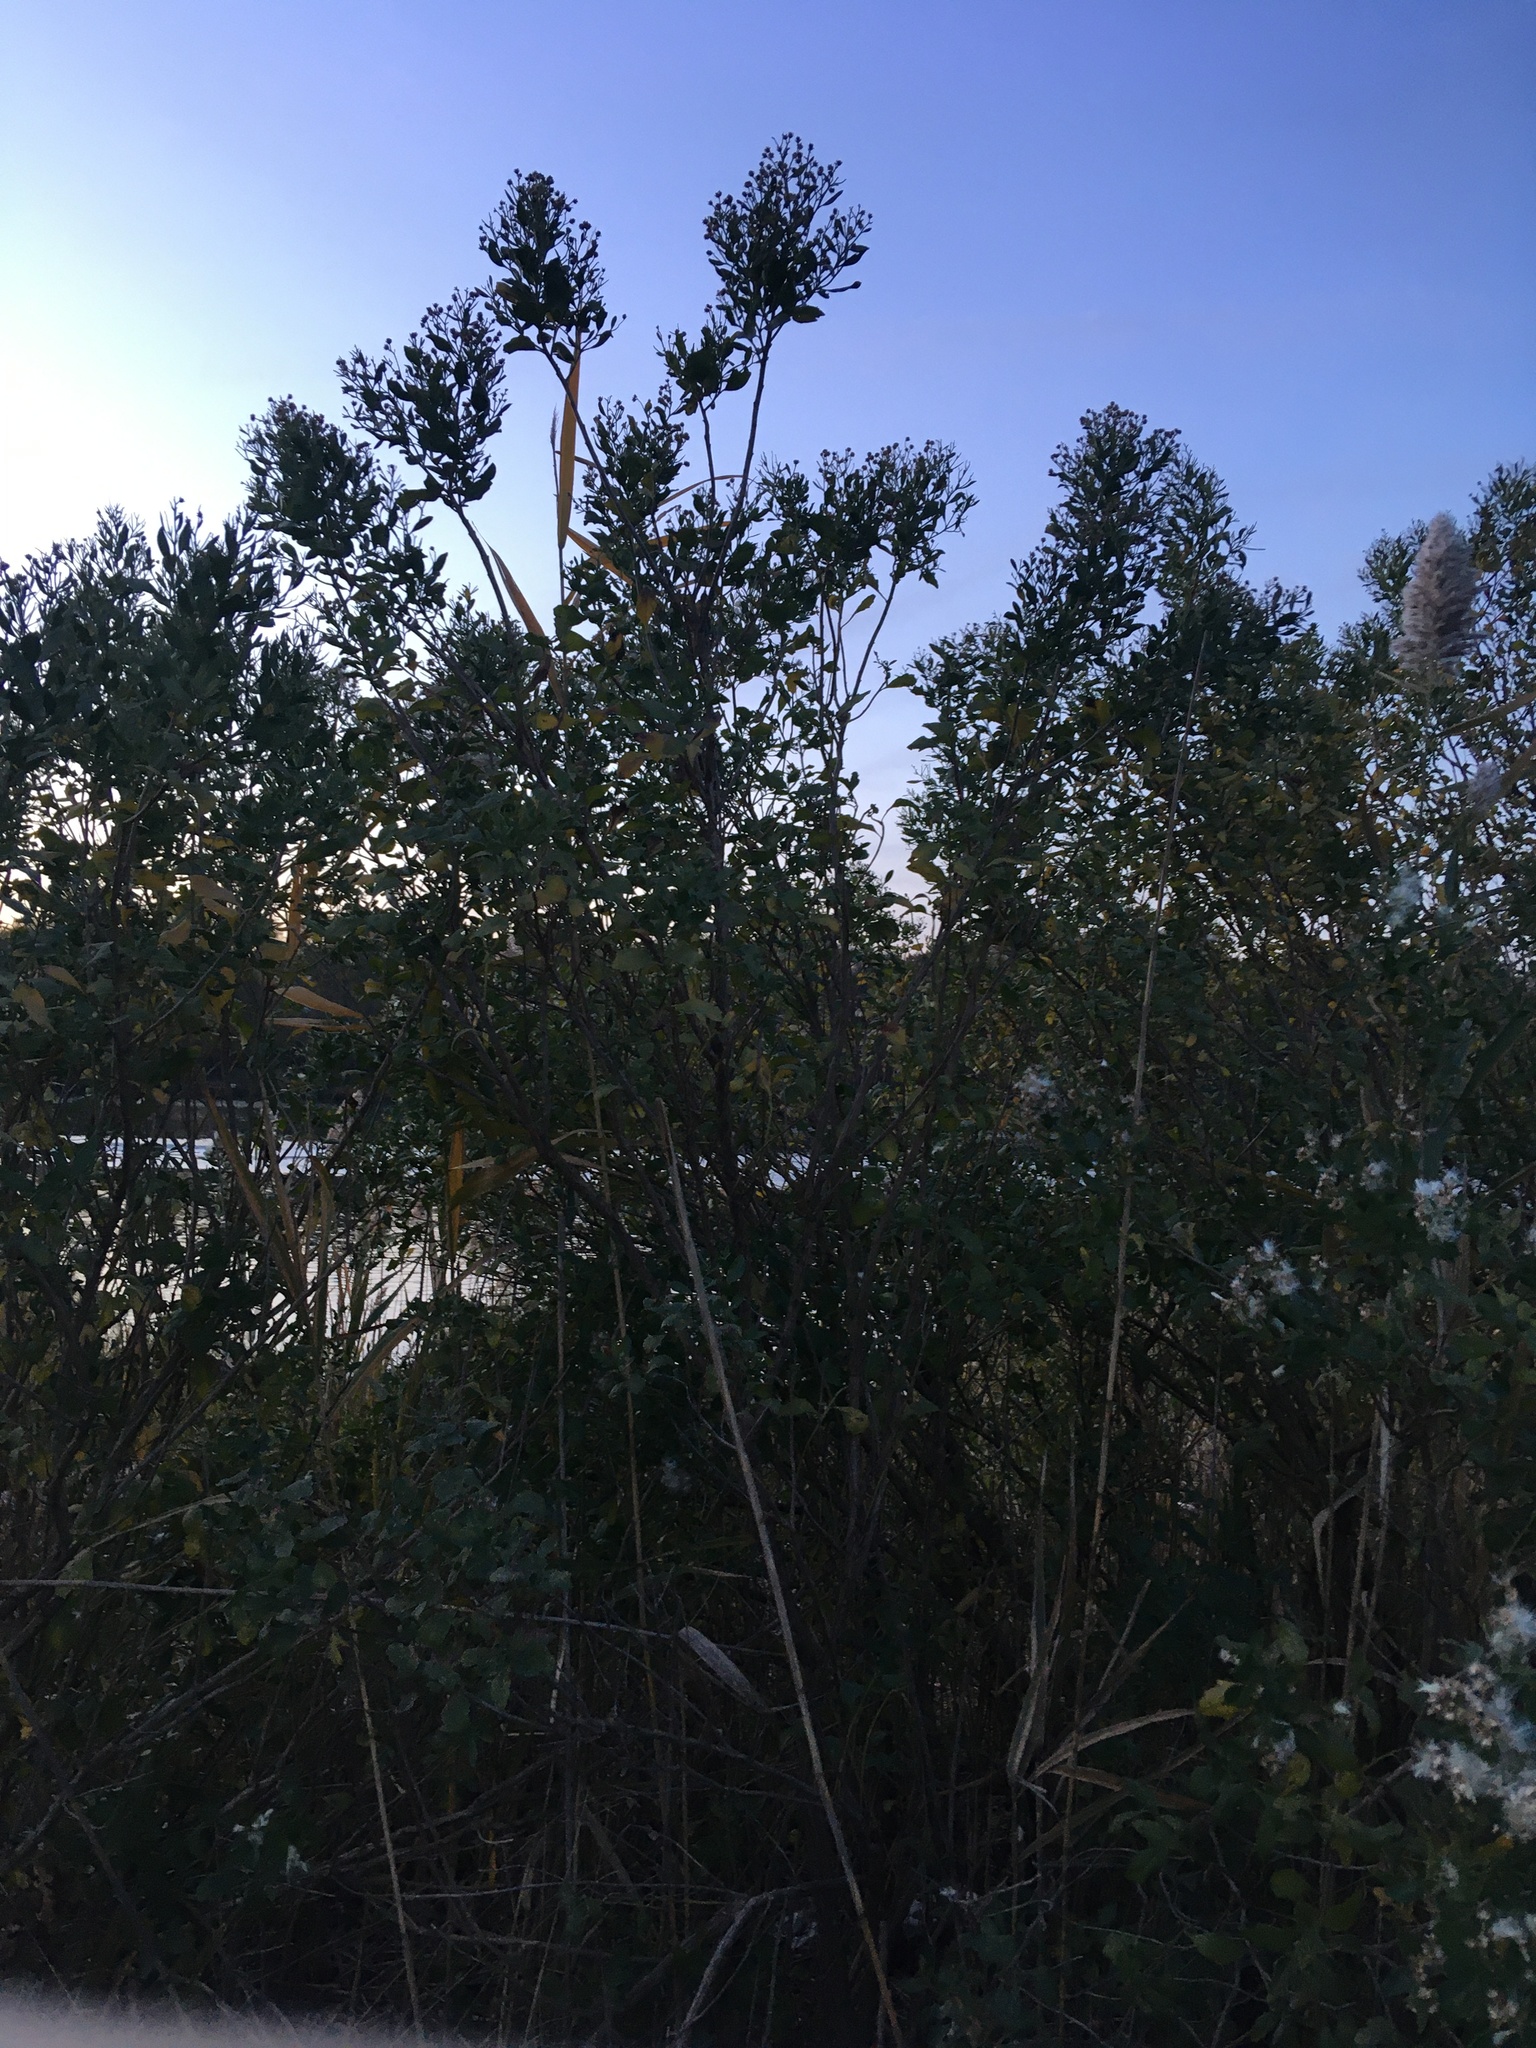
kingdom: Plantae
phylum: Tracheophyta
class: Magnoliopsida
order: Asterales
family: Asteraceae
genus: Baccharis
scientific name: Baccharis halimifolia
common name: Eastern baccharis
